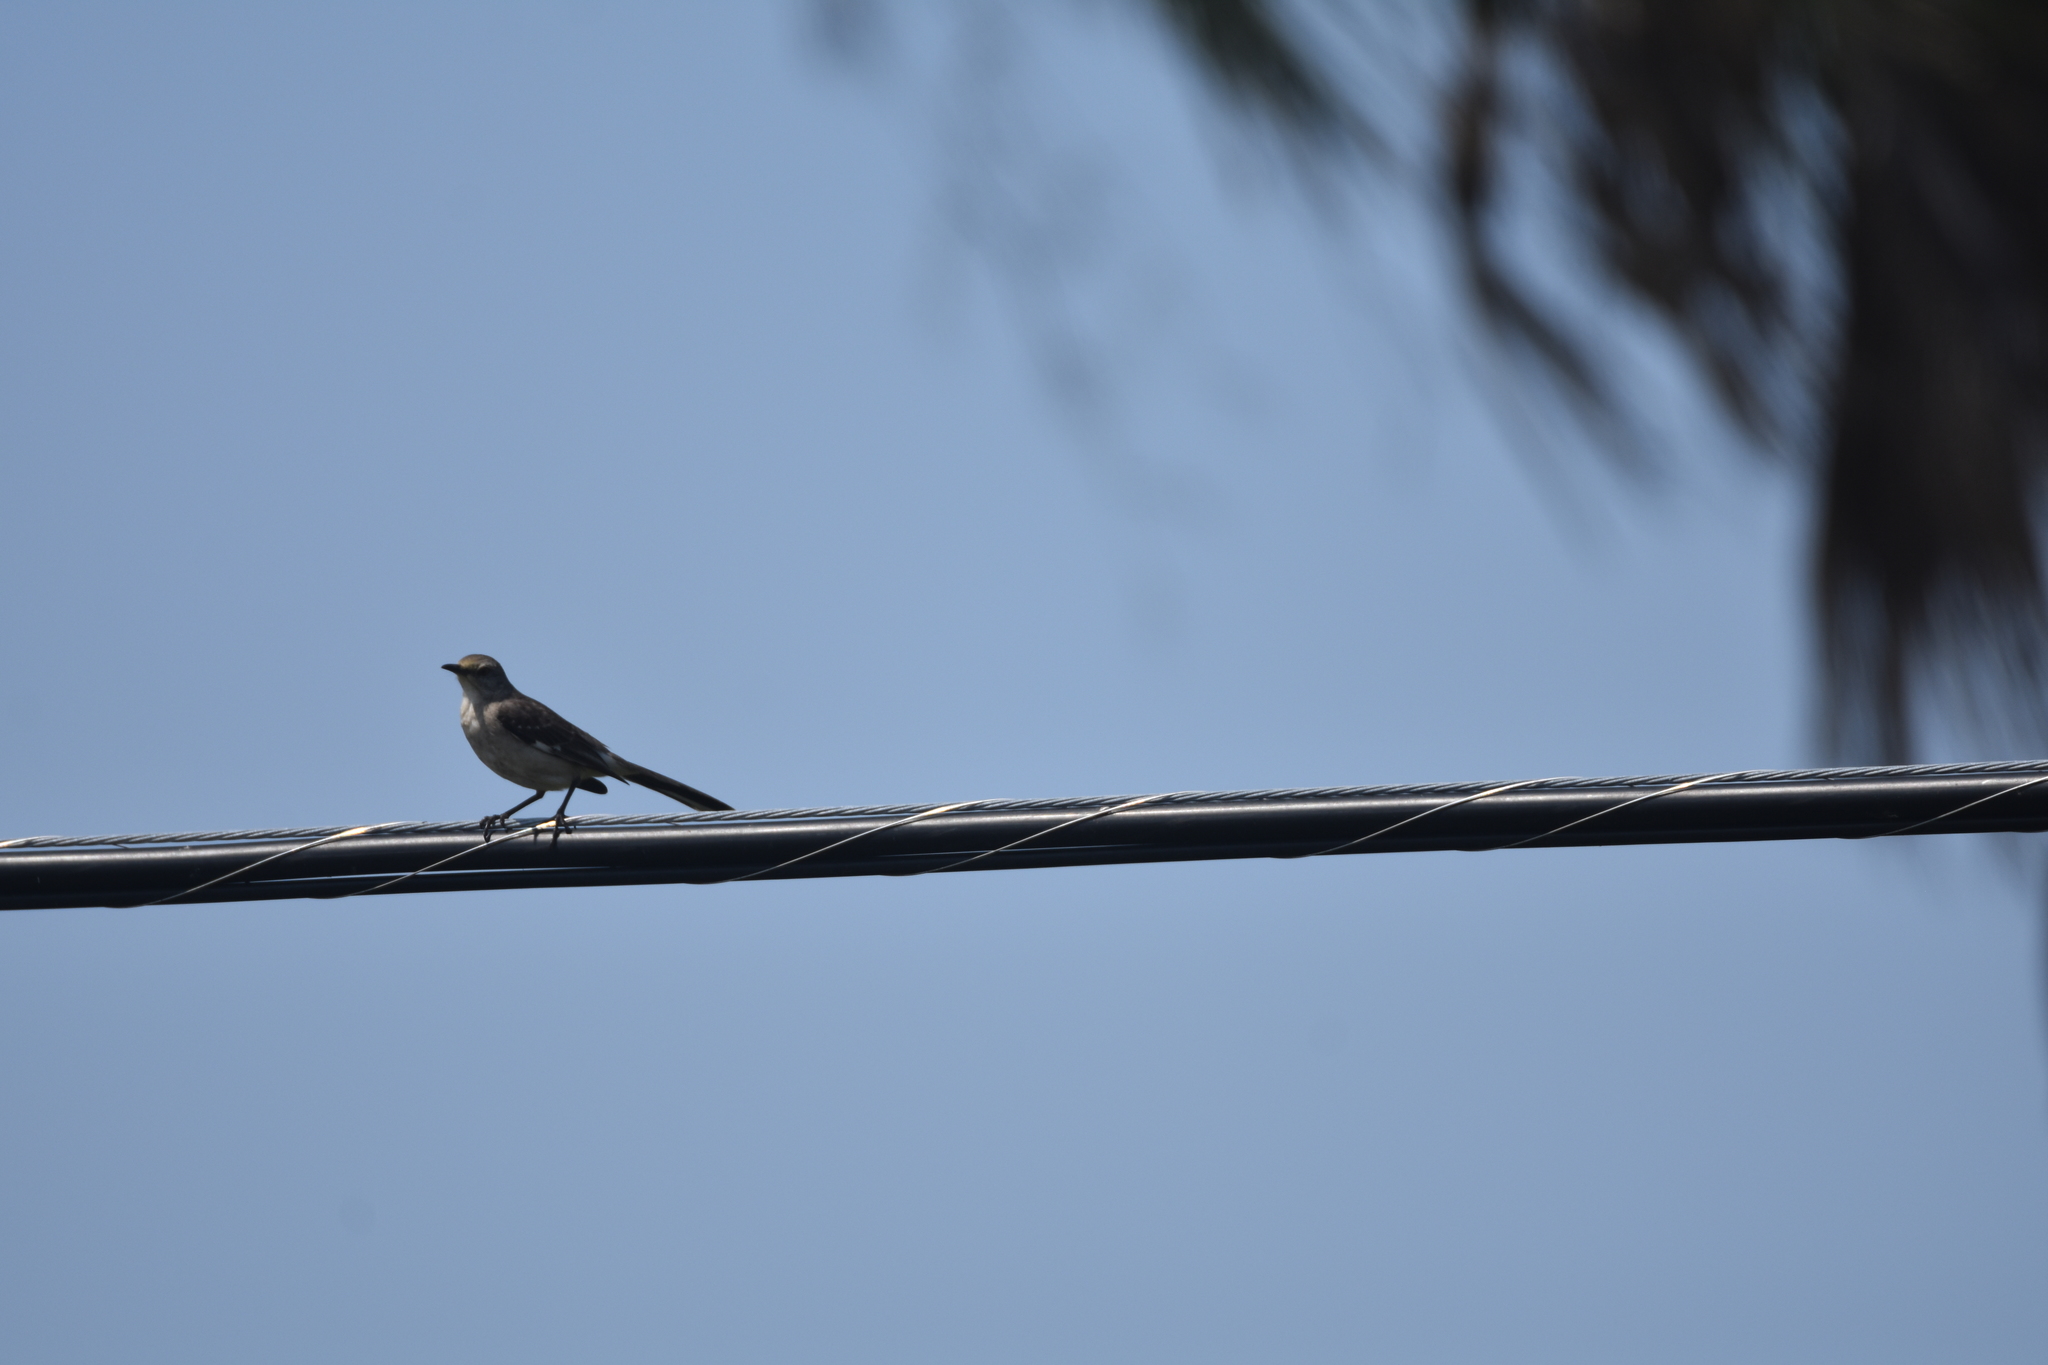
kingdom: Animalia
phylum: Chordata
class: Aves
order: Passeriformes
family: Mimidae
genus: Mimus
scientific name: Mimus polyglottos
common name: Northern mockingbird
